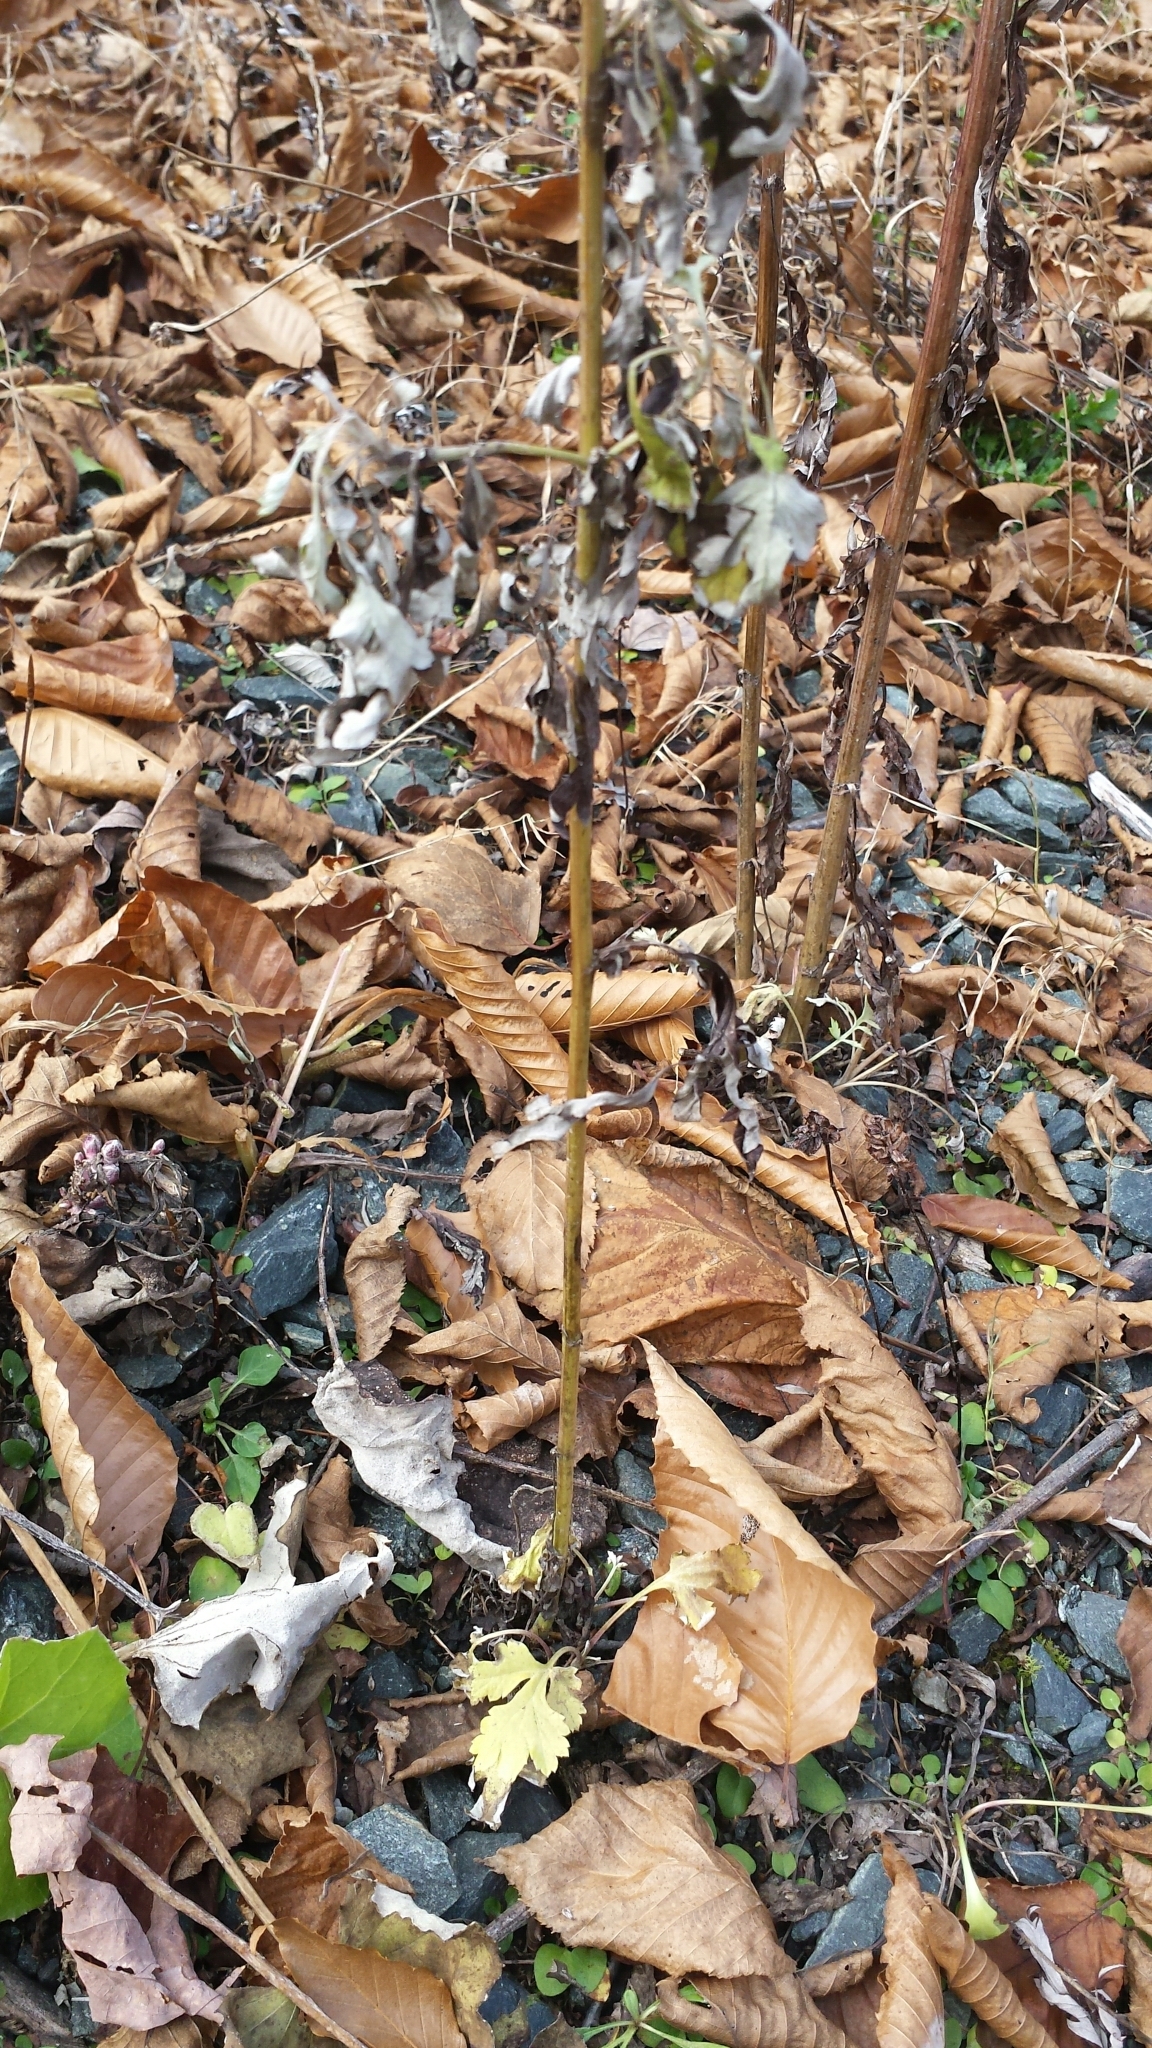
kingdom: Plantae
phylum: Tracheophyta
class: Magnoliopsida
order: Asterales
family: Asteraceae
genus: Artemisia
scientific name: Artemisia vulgaris
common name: Mugwort
